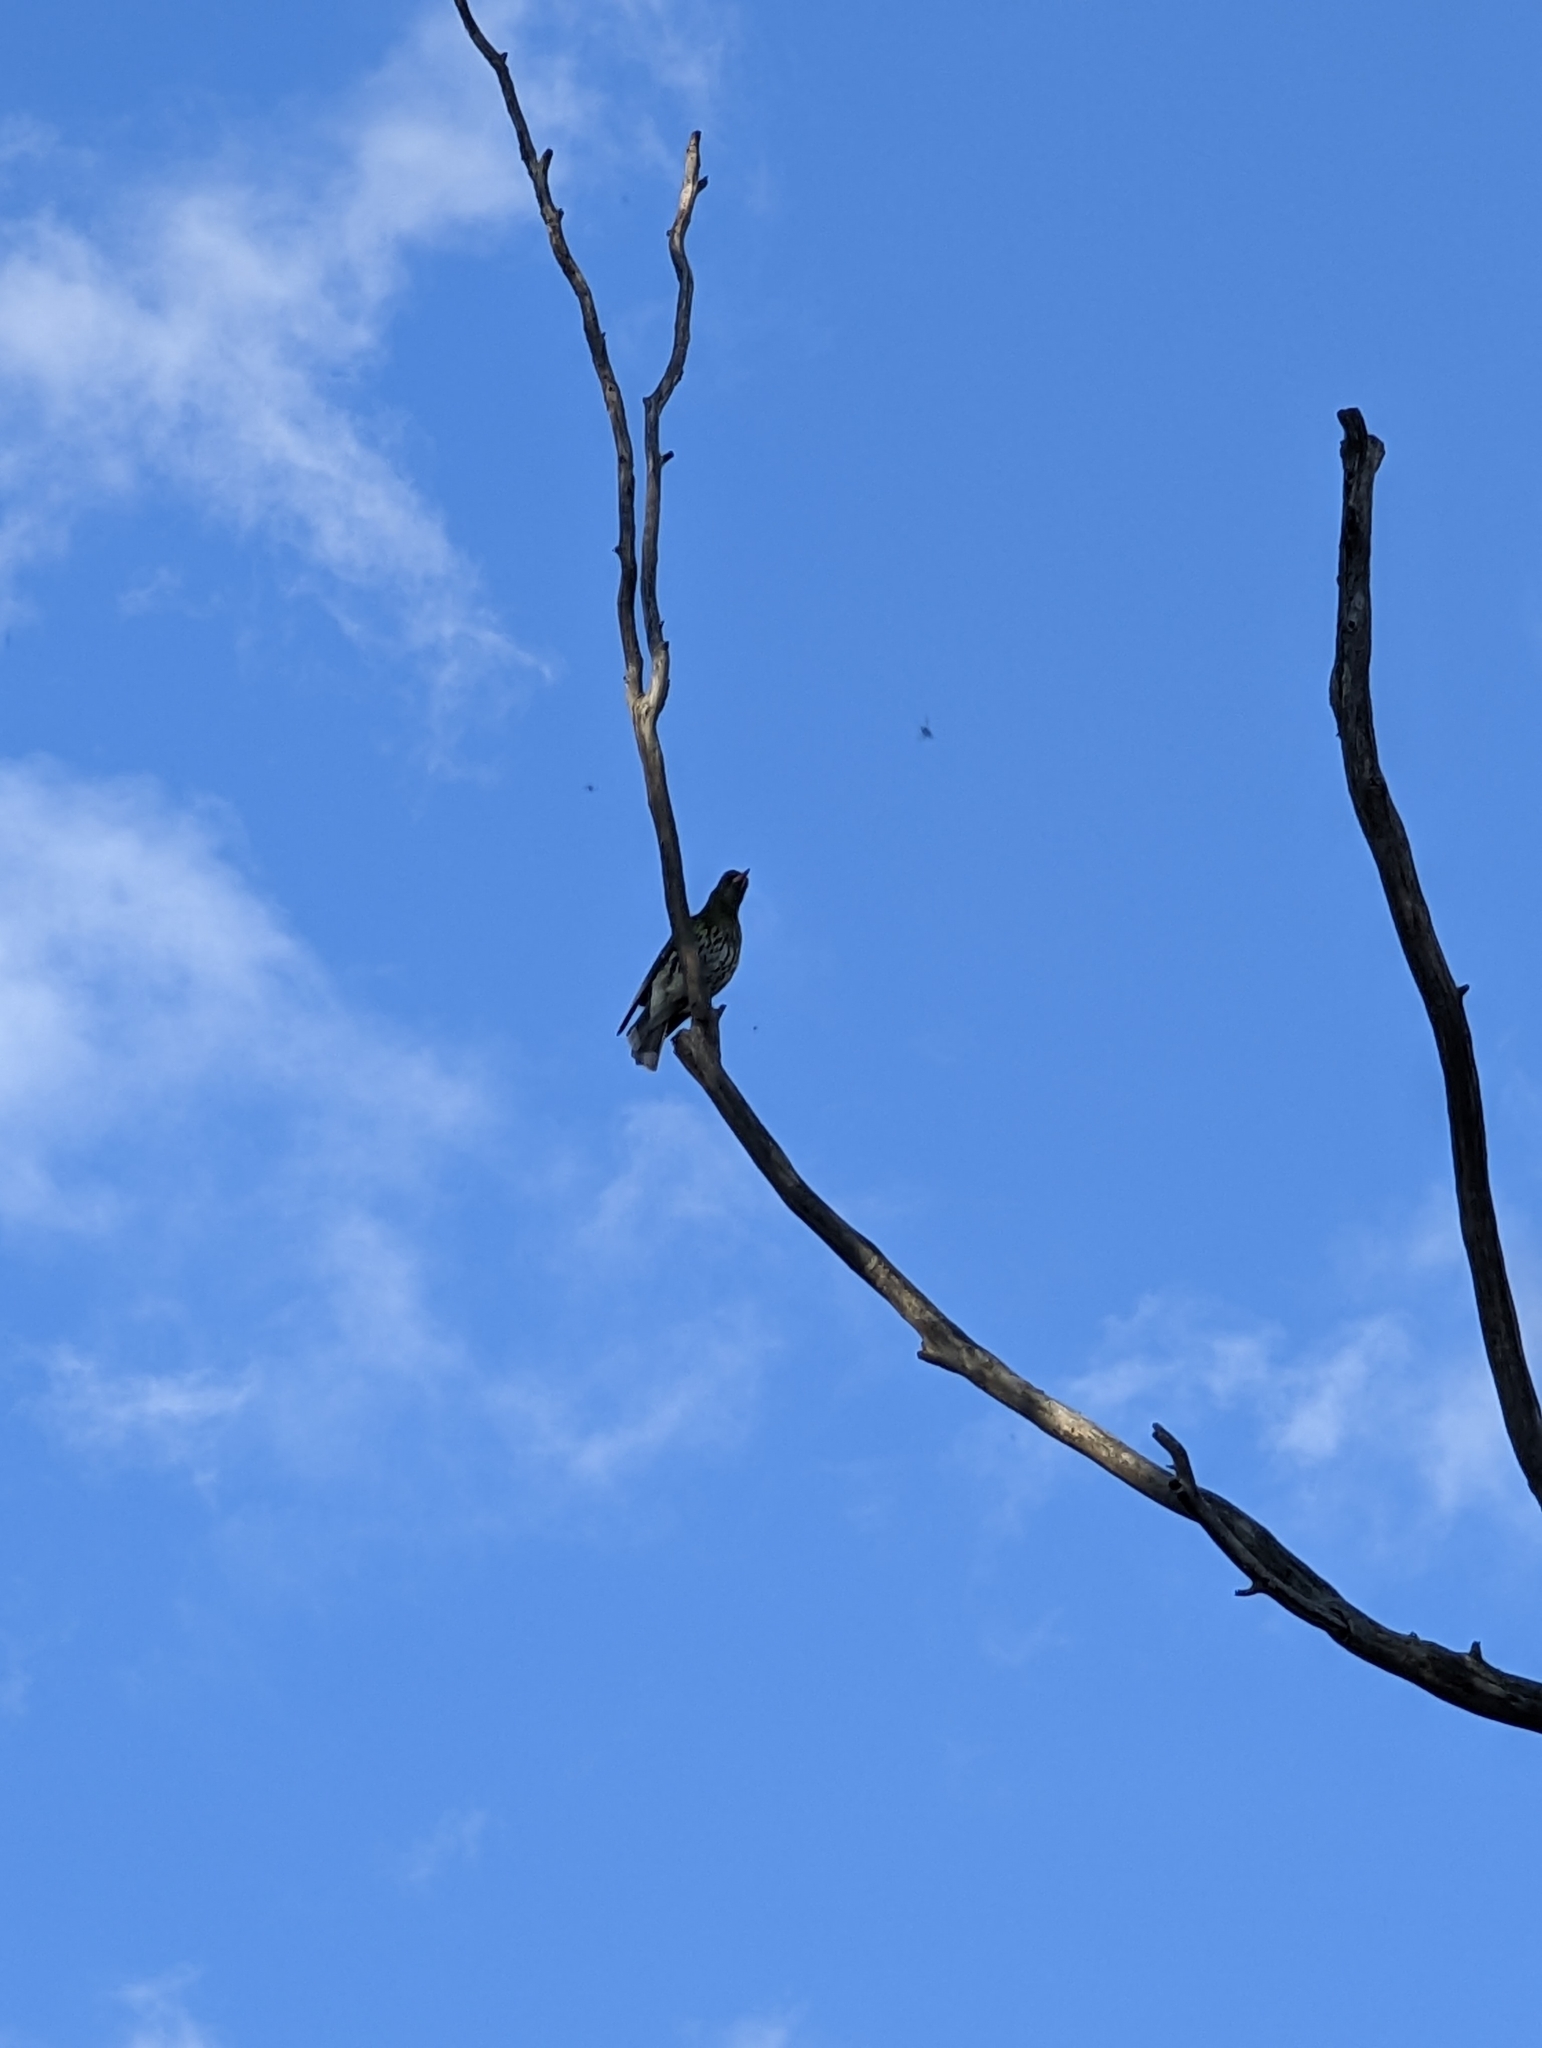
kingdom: Animalia
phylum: Chordata
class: Aves
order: Passeriformes
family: Oriolidae
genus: Oriolus
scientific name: Oriolus sagittatus
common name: Olive-backed oriole
